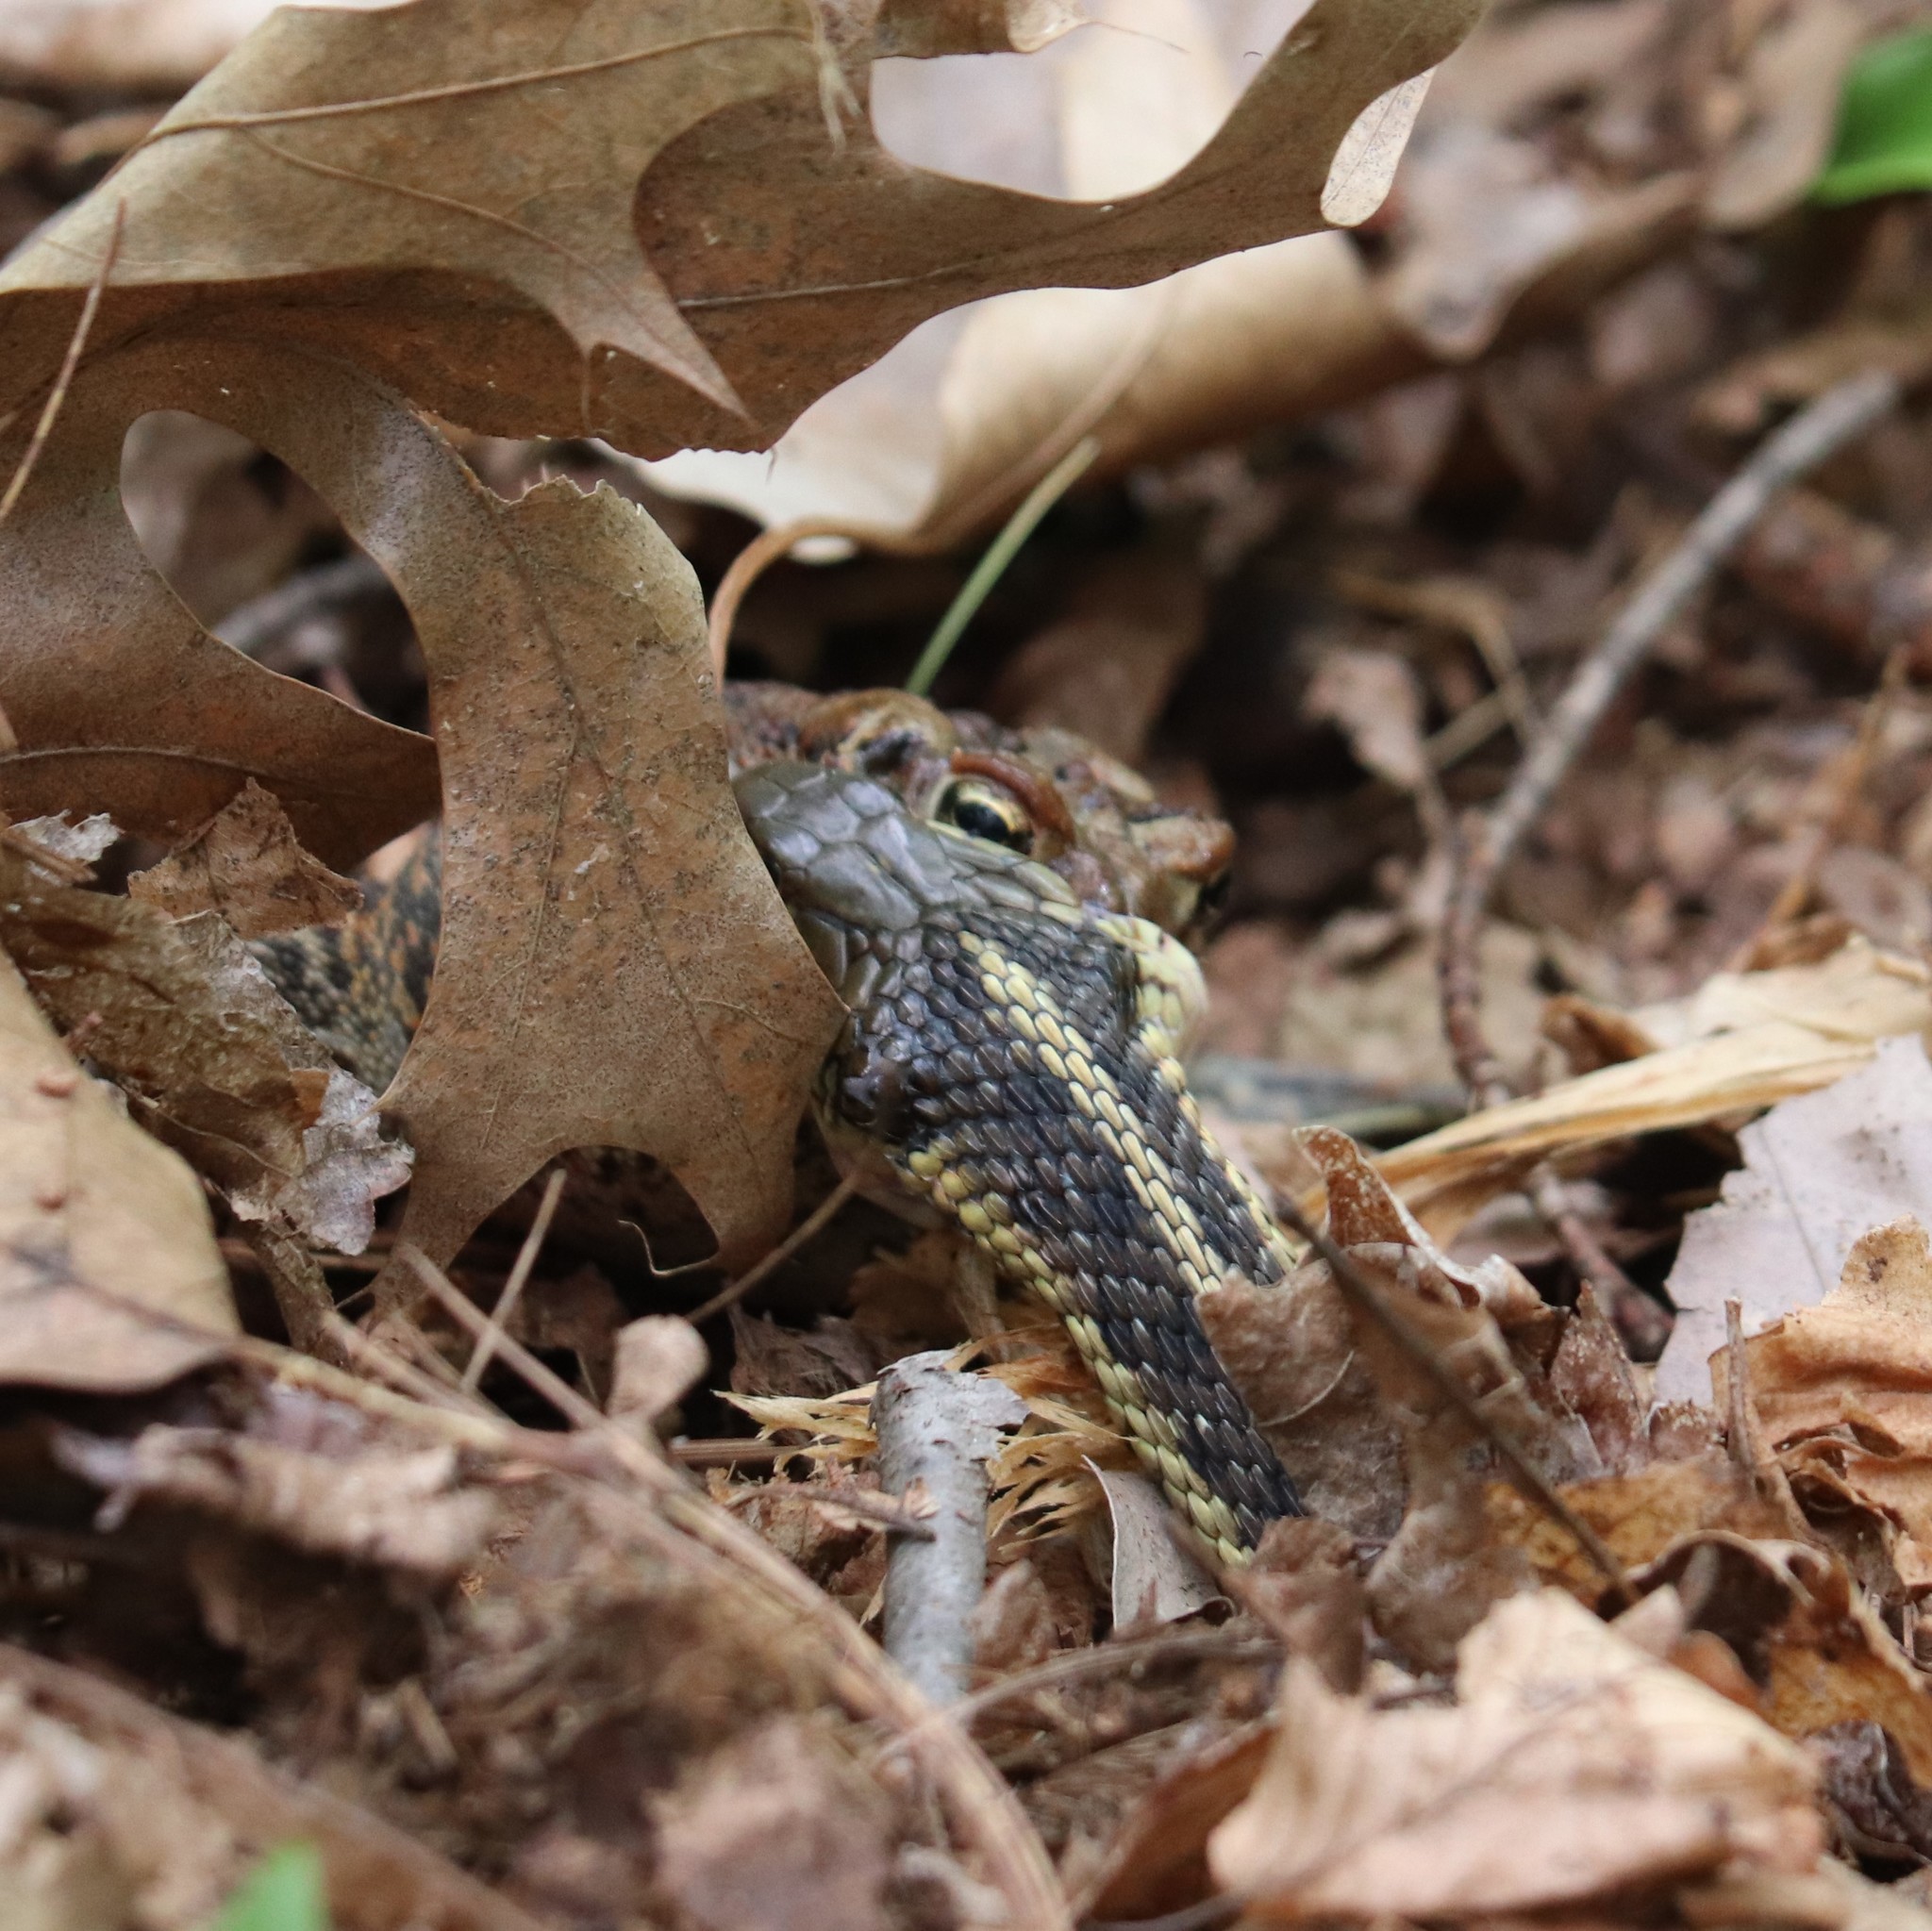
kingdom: Animalia
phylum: Chordata
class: Amphibia
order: Anura
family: Bufonidae
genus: Anaxyrus
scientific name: Anaxyrus americanus
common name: American toad
